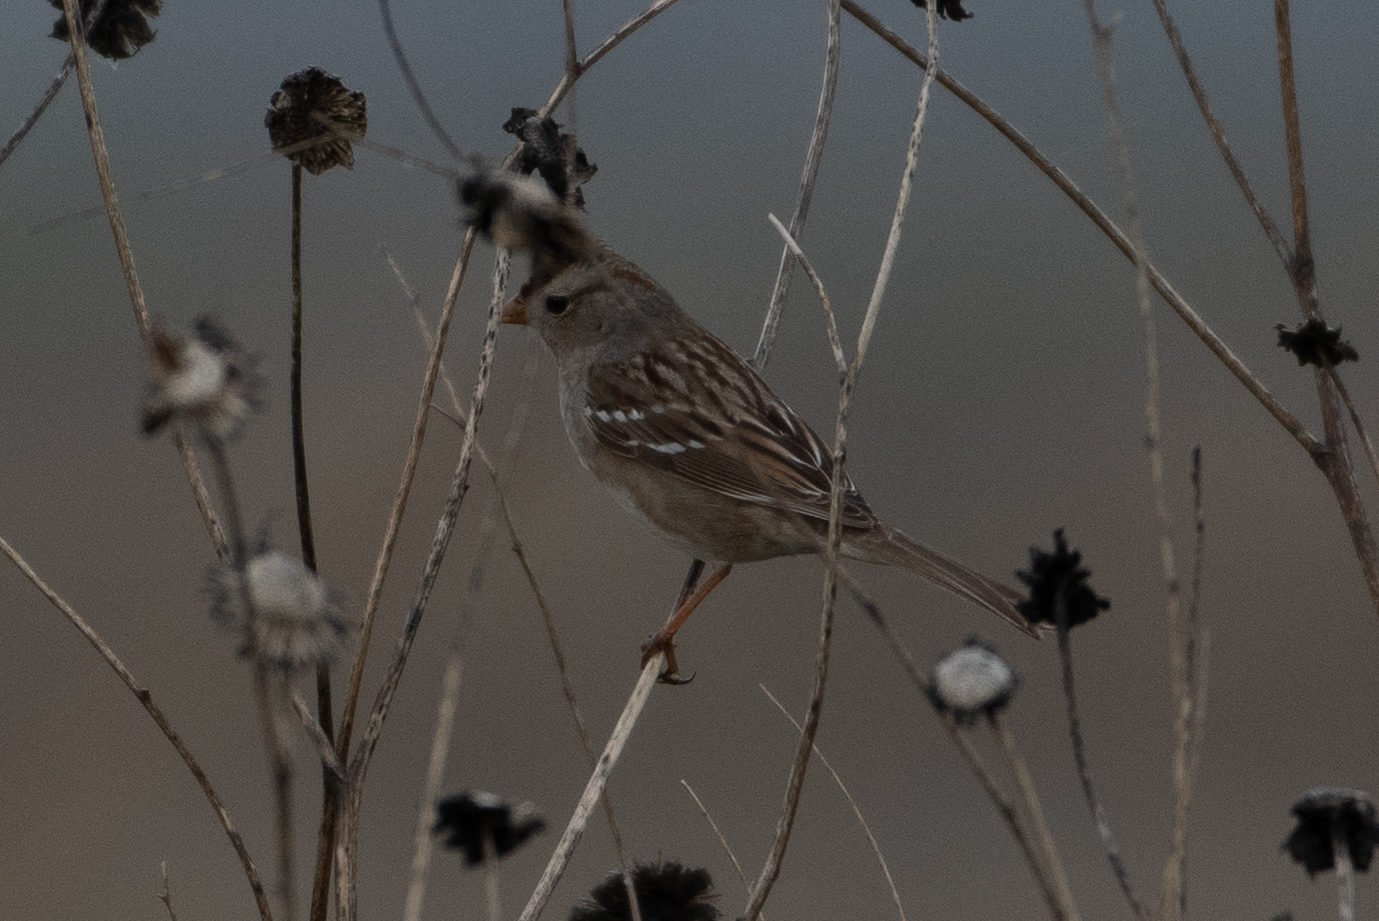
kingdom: Animalia
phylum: Chordata
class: Aves
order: Passeriformes
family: Passerellidae
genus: Zonotrichia
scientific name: Zonotrichia leucophrys
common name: White-crowned sparrow
